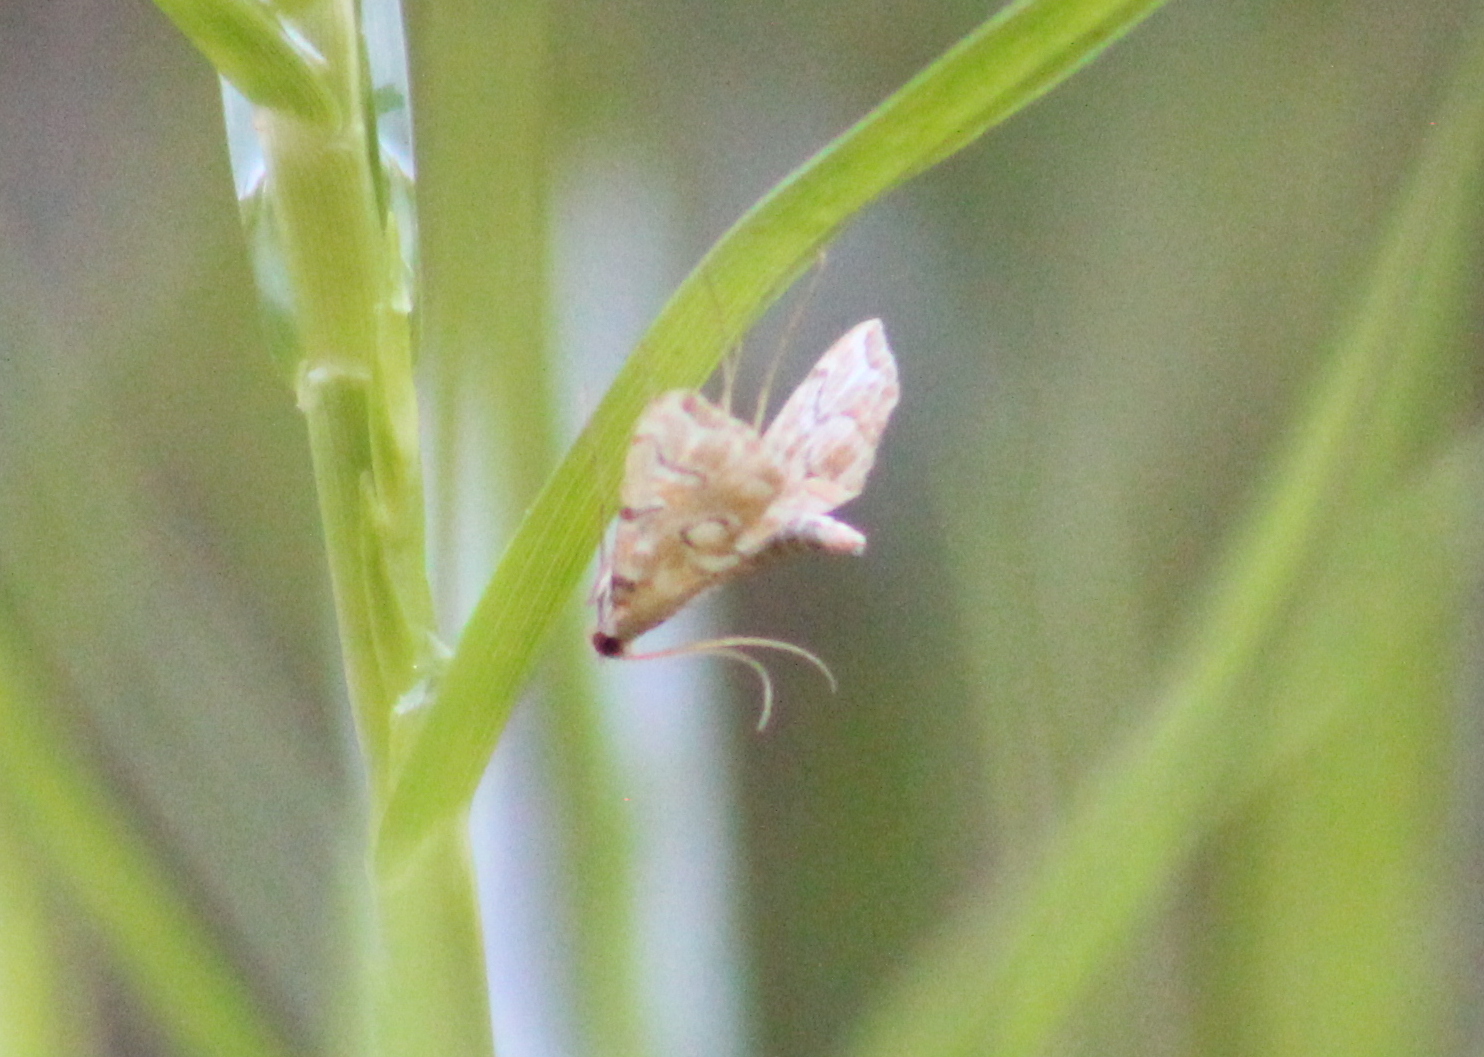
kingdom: Animalia
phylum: Arthropoda
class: Insecta
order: Lepidoptera
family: Crambidae
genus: Elophila
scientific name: Elophila icciusalis
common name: Pondside pyralid moth
